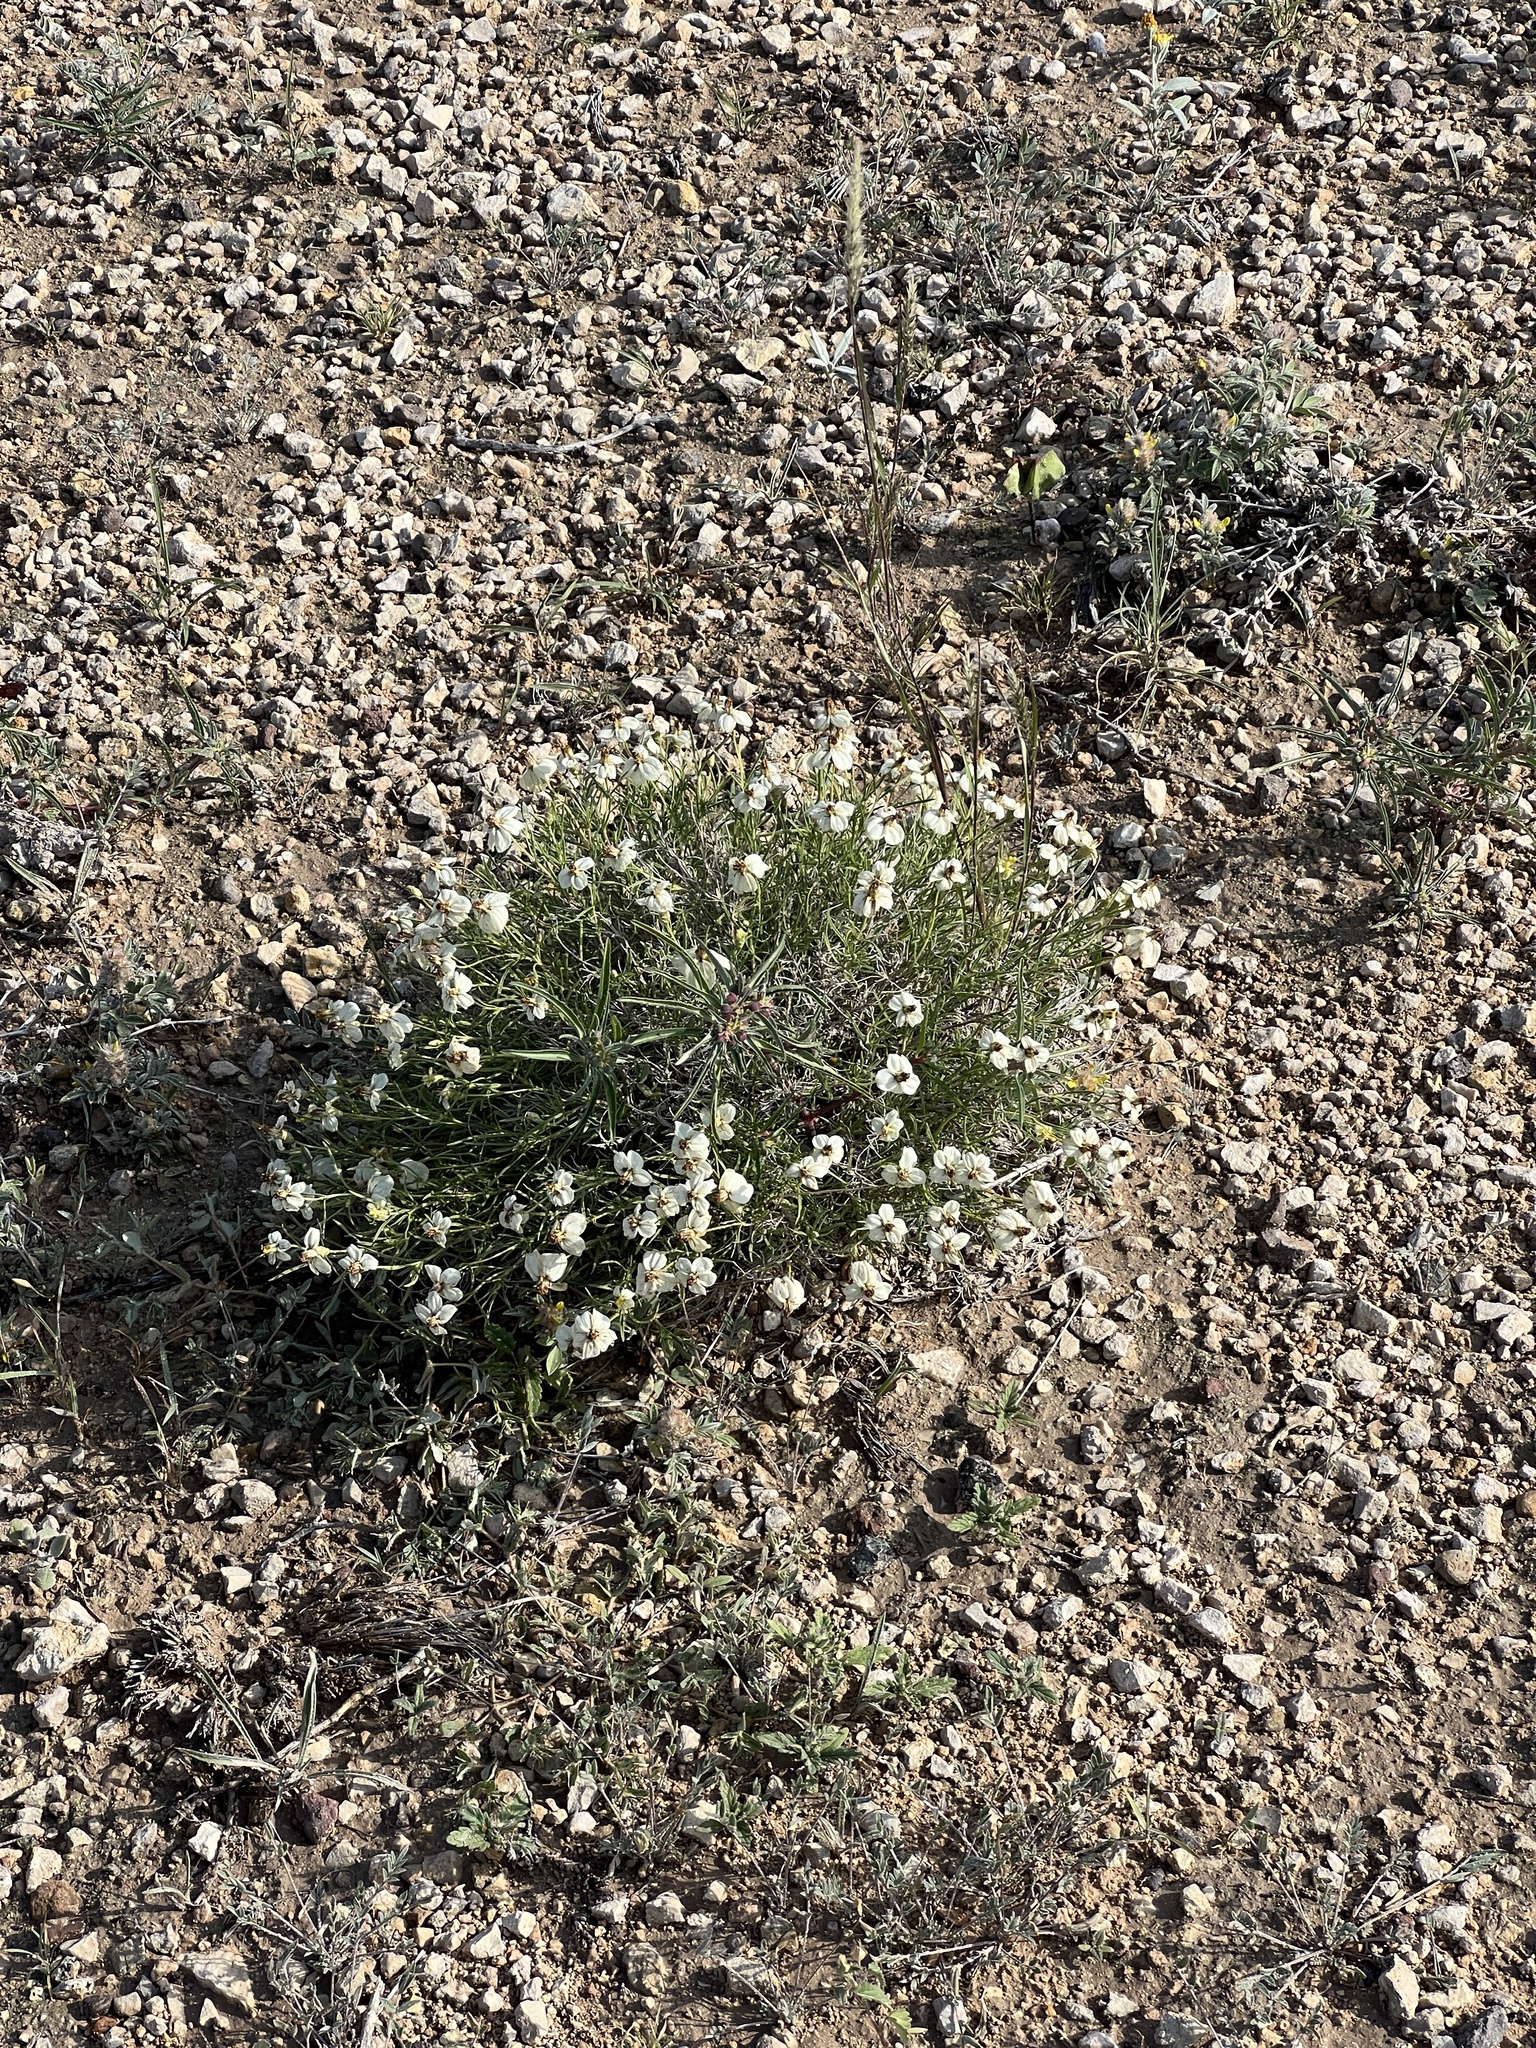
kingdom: Plantae
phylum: Tracheophyta
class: Magnoliopsida
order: Asterales
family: Asteraceae
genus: Zinnia
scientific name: Zinnia acerosa
